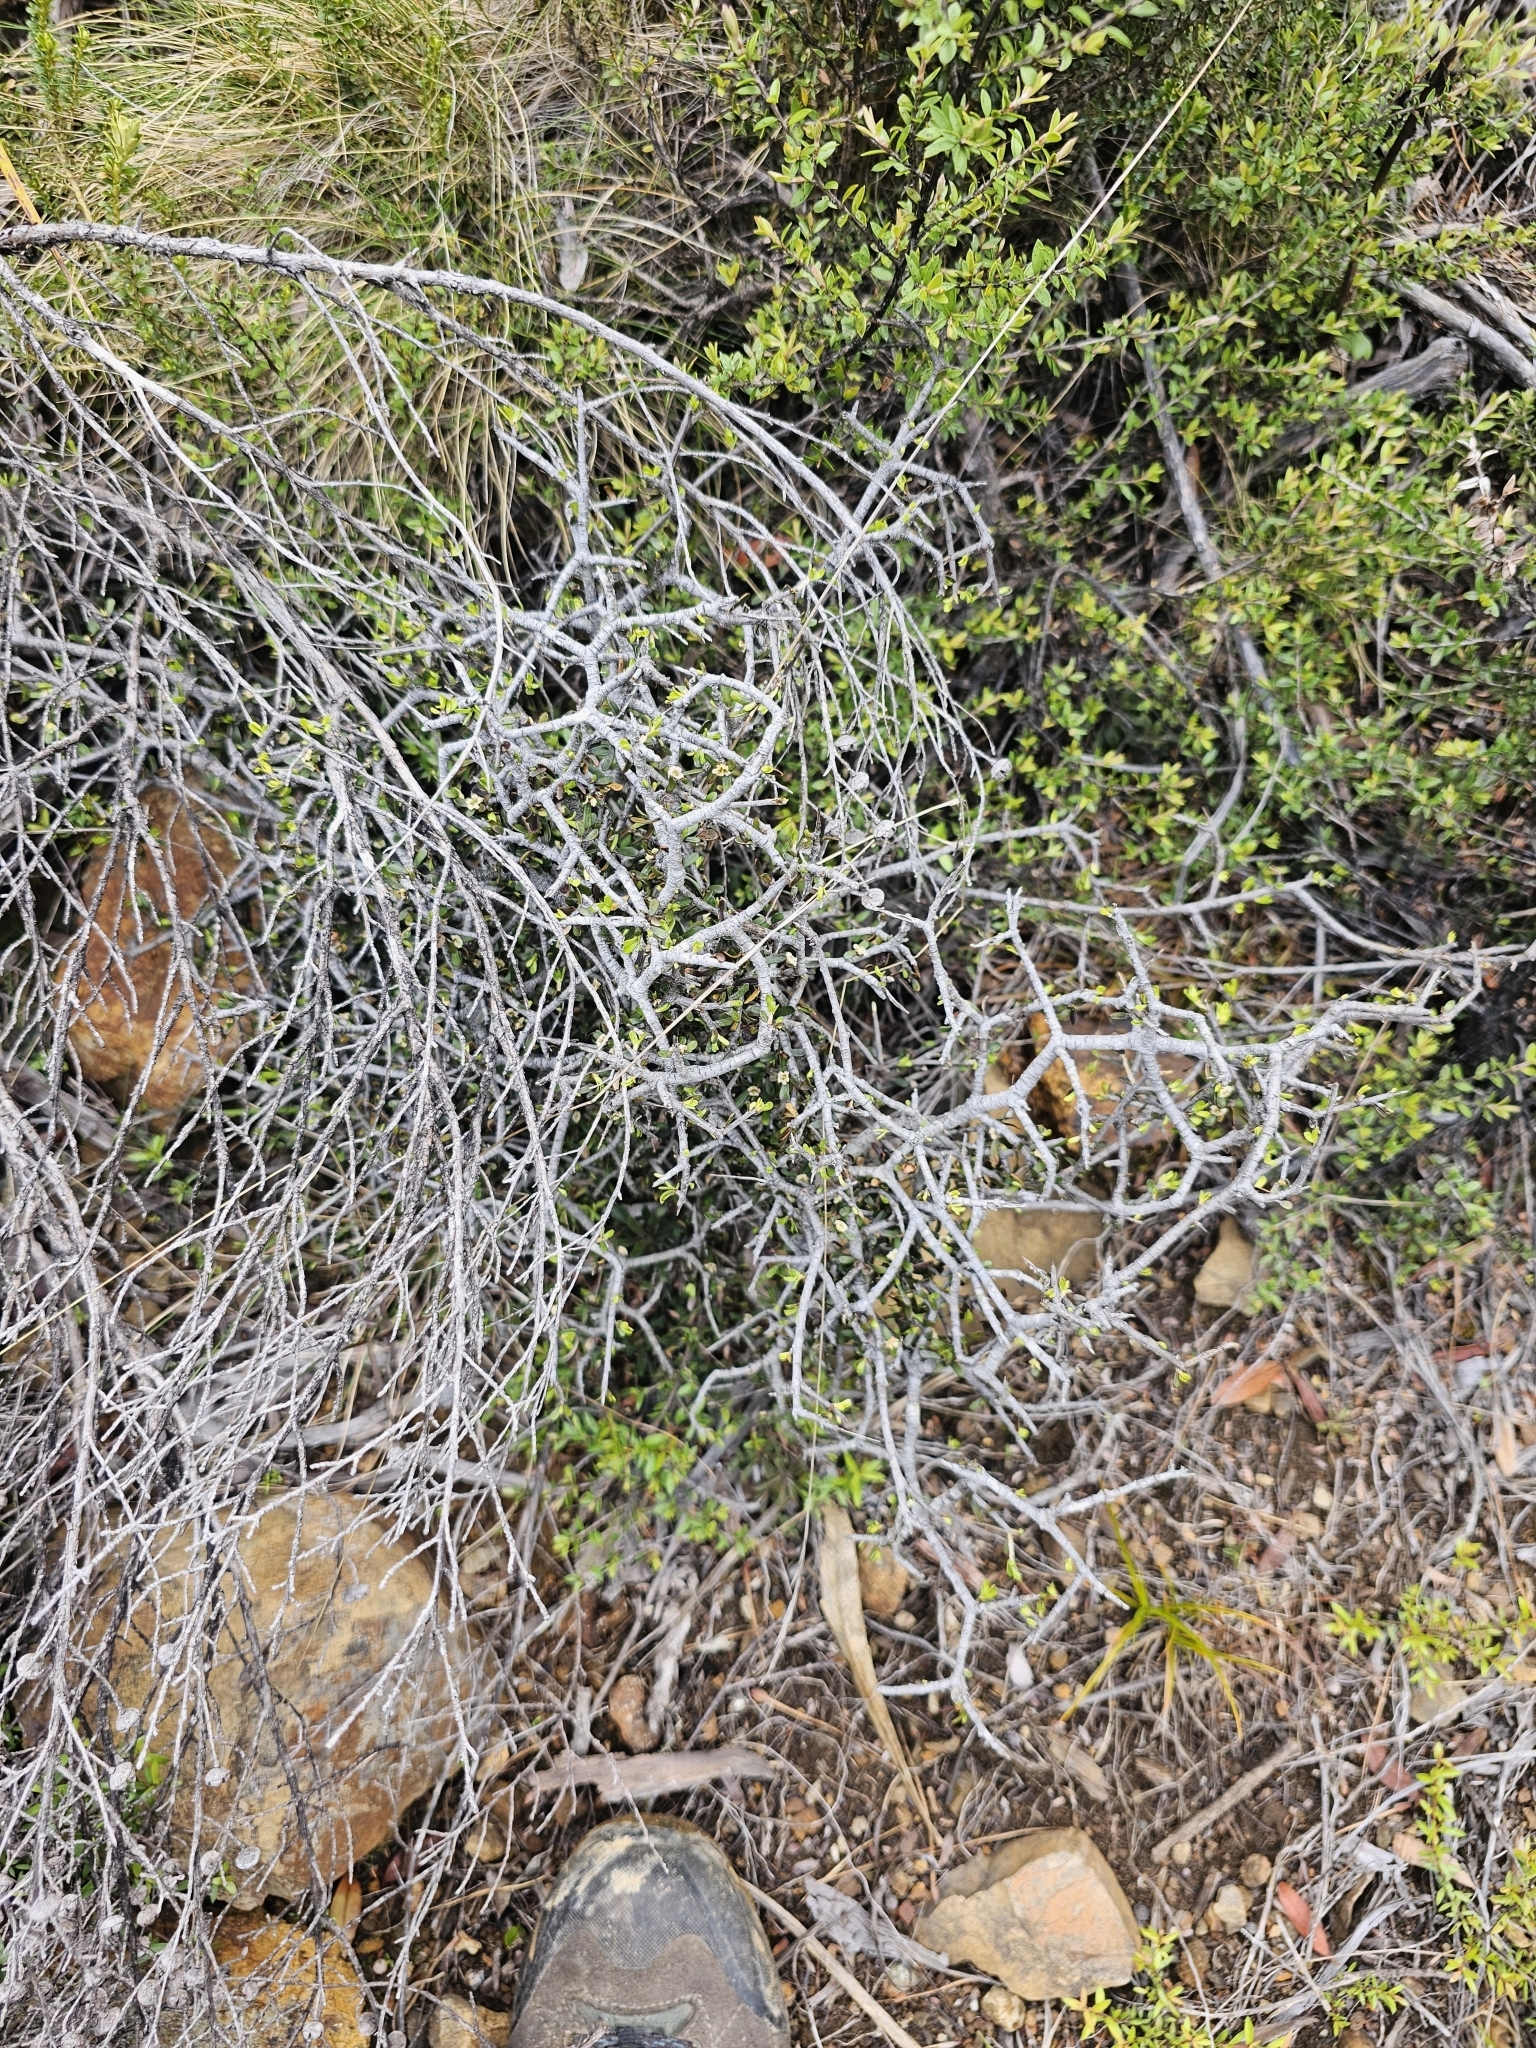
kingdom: Plantae
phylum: Tracheophyta
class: Magnoliopsida
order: Apiales
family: Pittosporaceae
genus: Pittosporum
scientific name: Pittosporum anomalum
